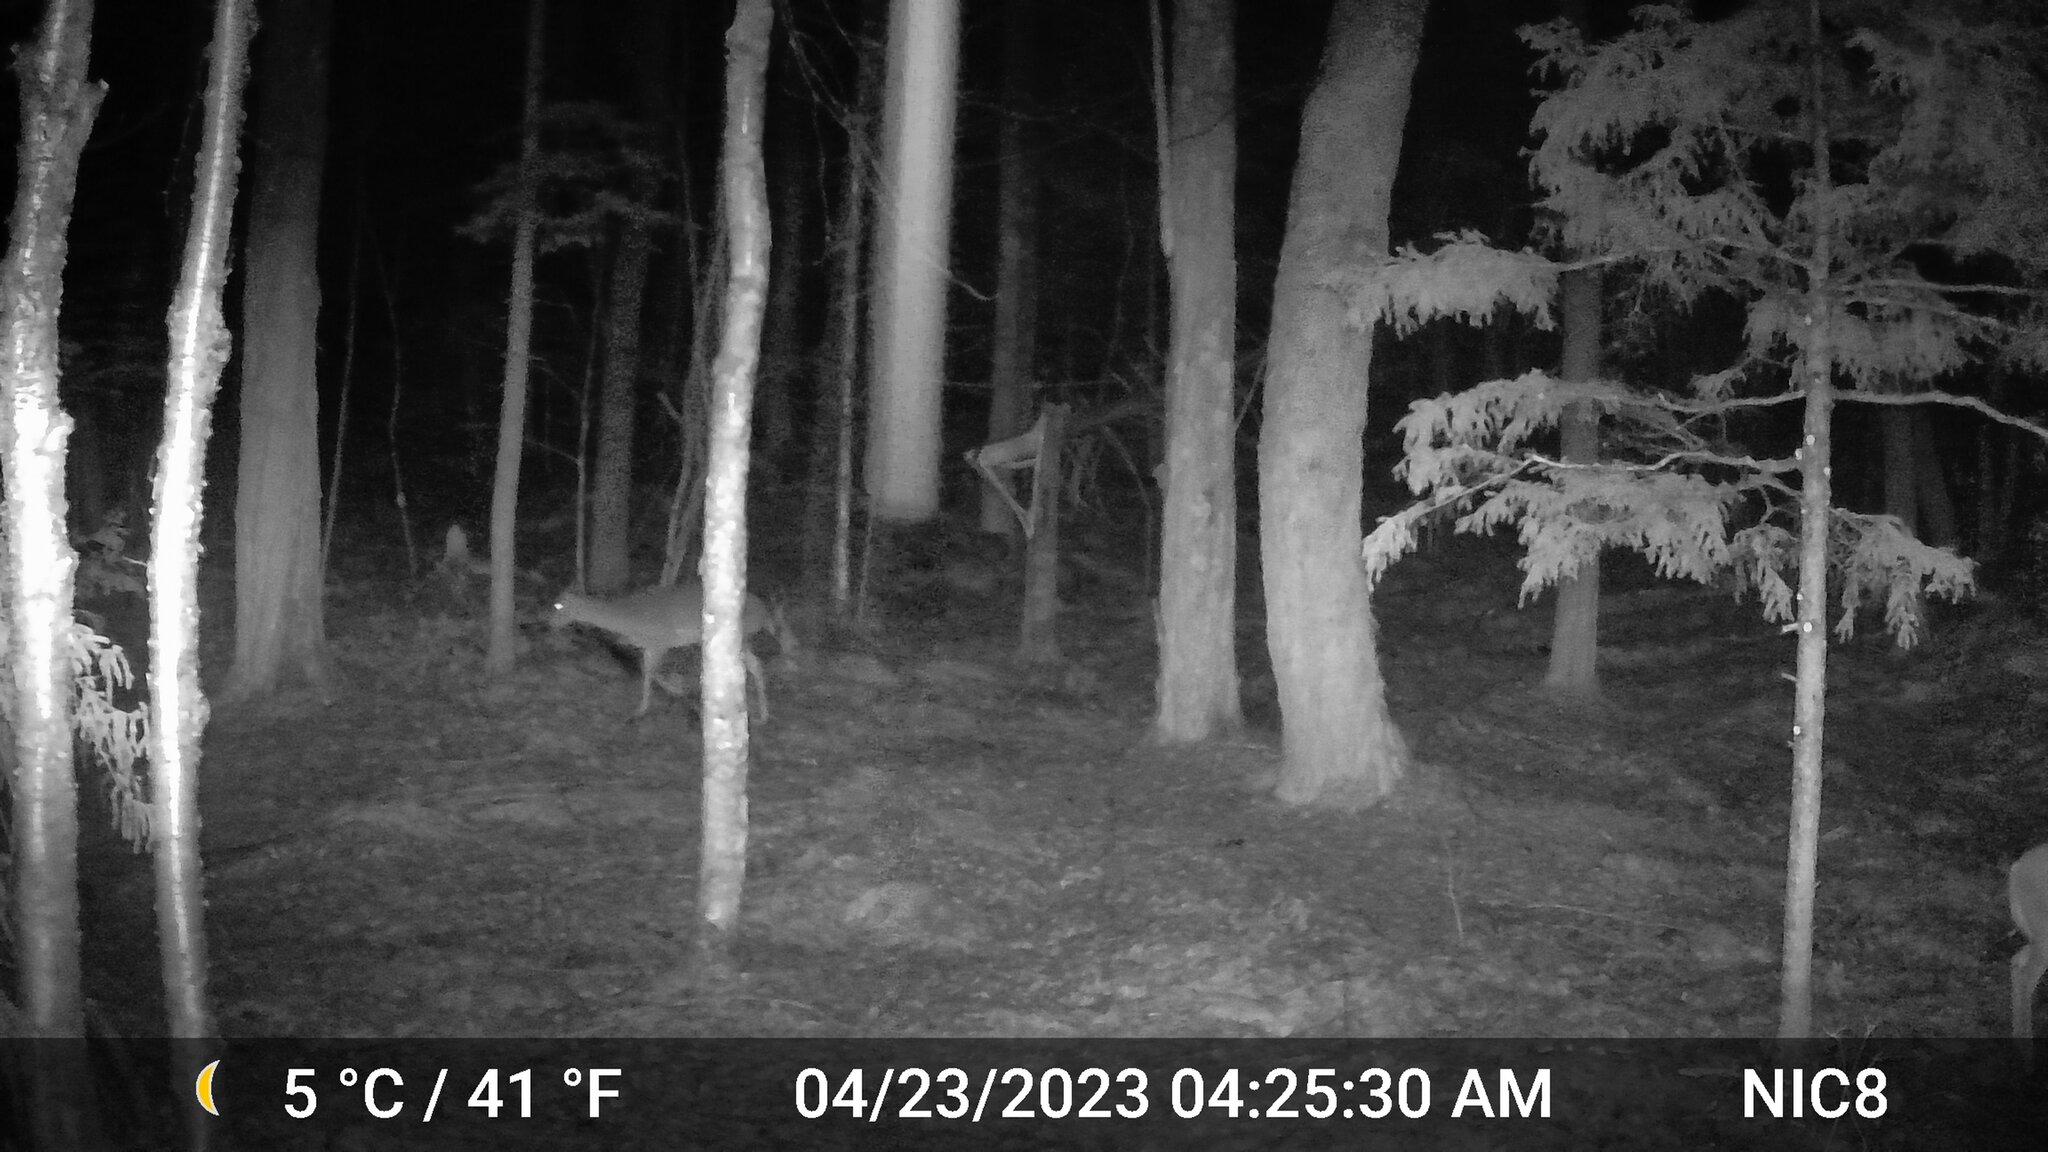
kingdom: Animalia
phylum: Chordata
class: Mammalia
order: Artiodactyla
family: Cervidae
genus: Odocoileus
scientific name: Odocoileus virginianus
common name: White-tailed deer
